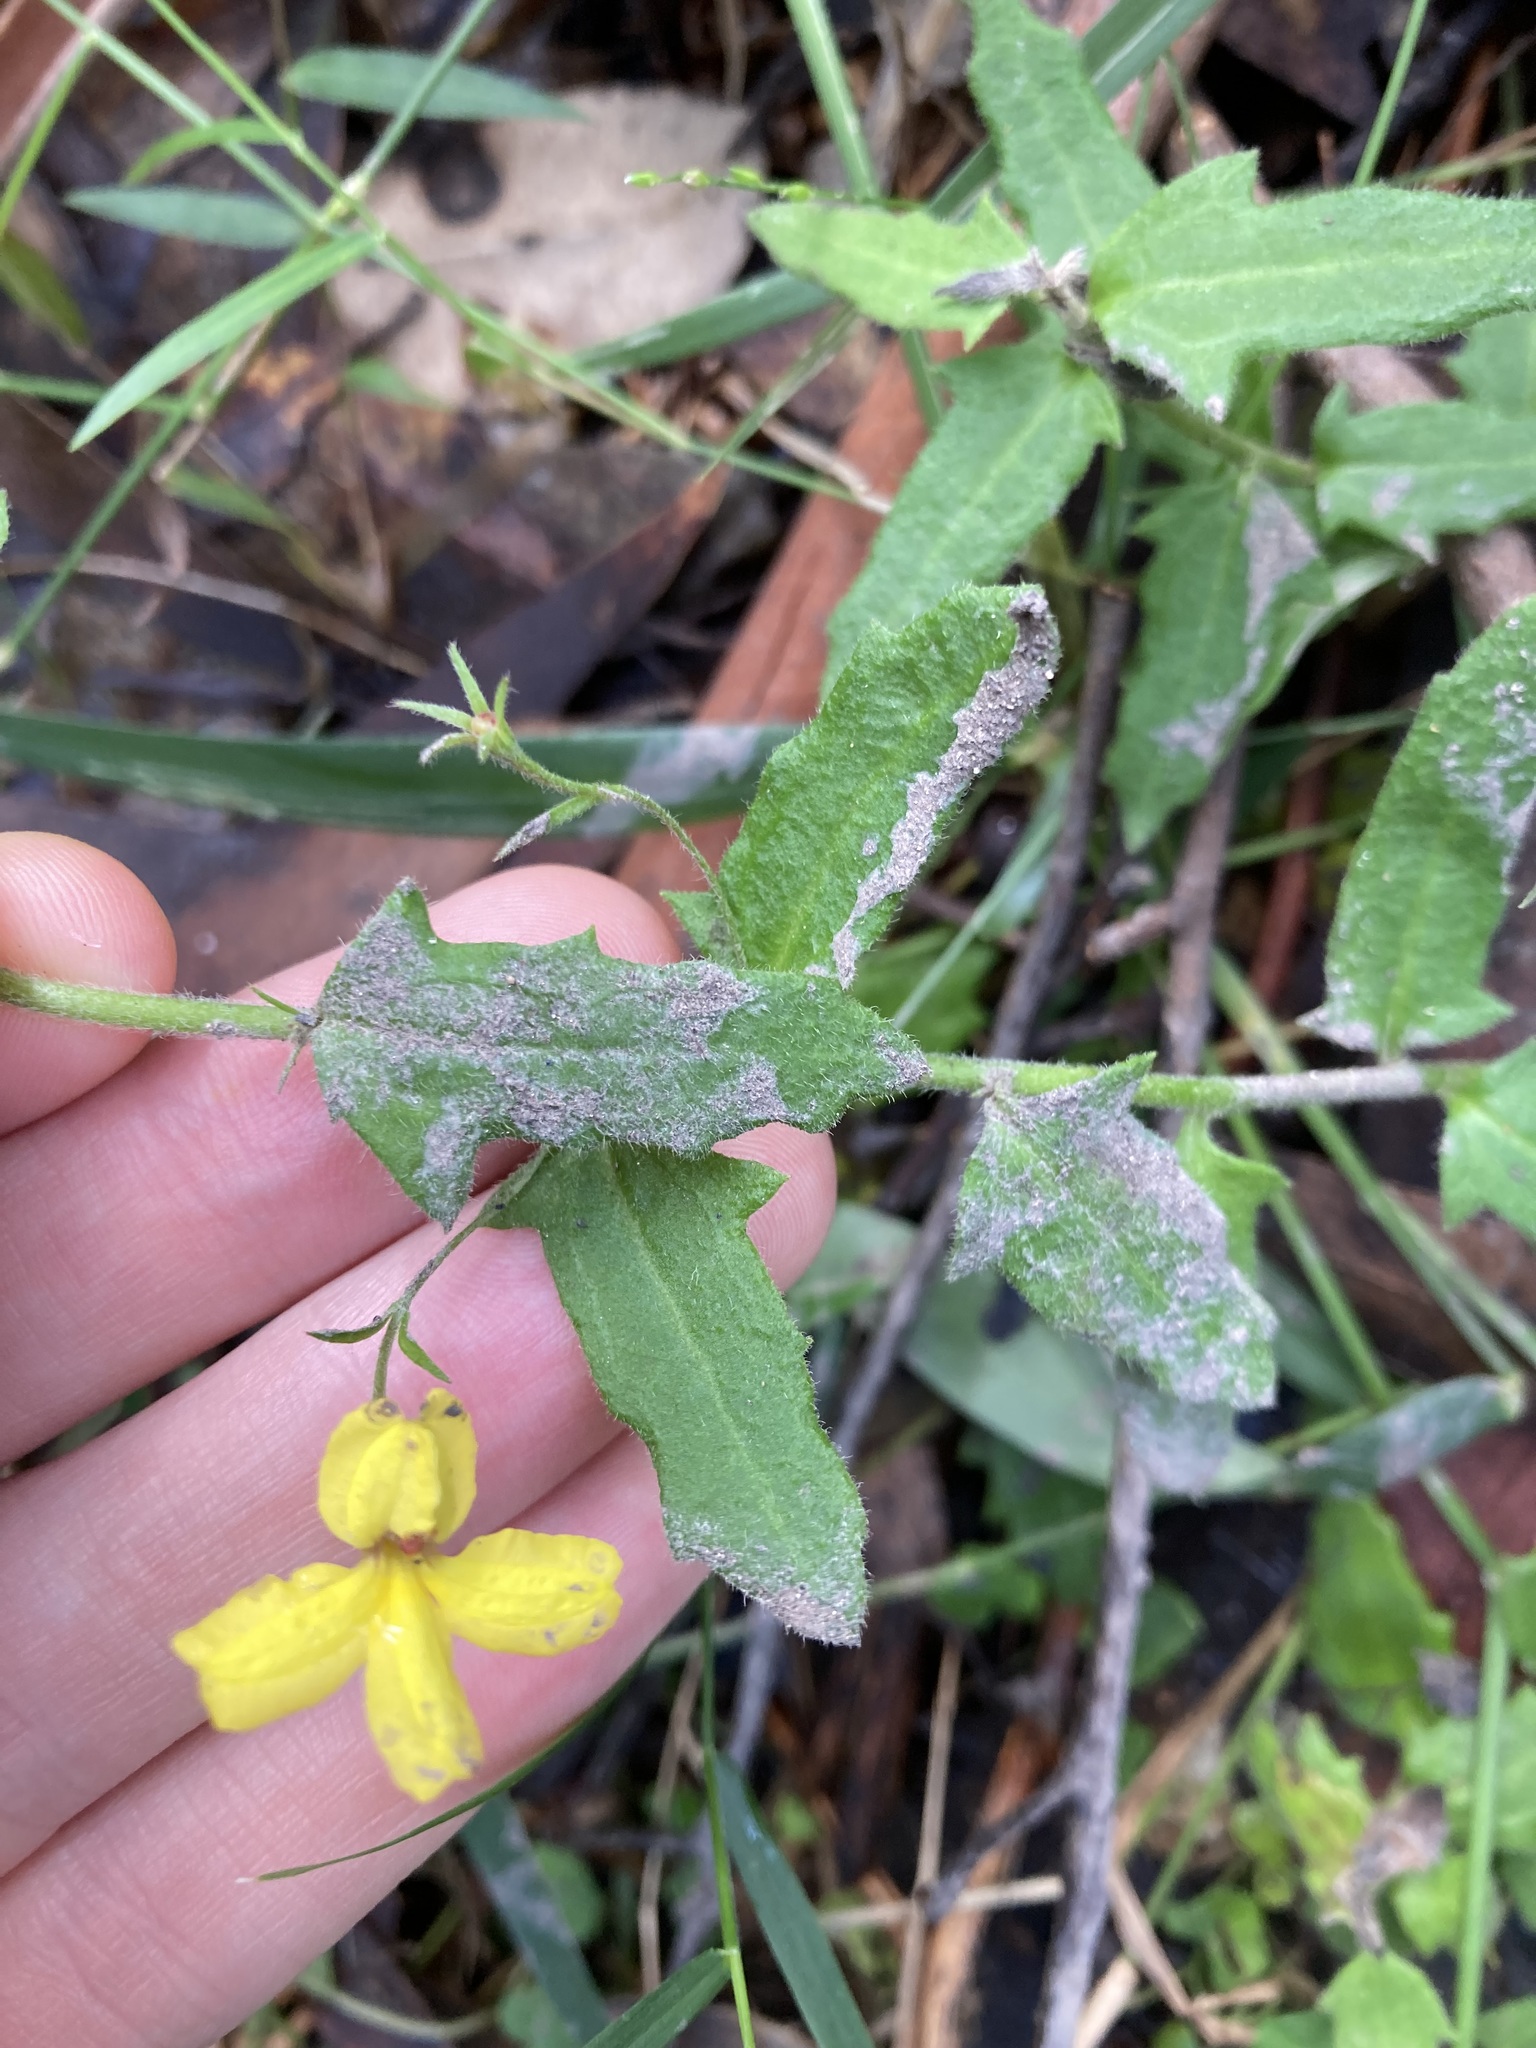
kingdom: Plantae
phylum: Tracheophyta
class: Magnoliopsida
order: Asterales
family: Goodeniaceae
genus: Goodenia
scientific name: Goodenia heterophylla
